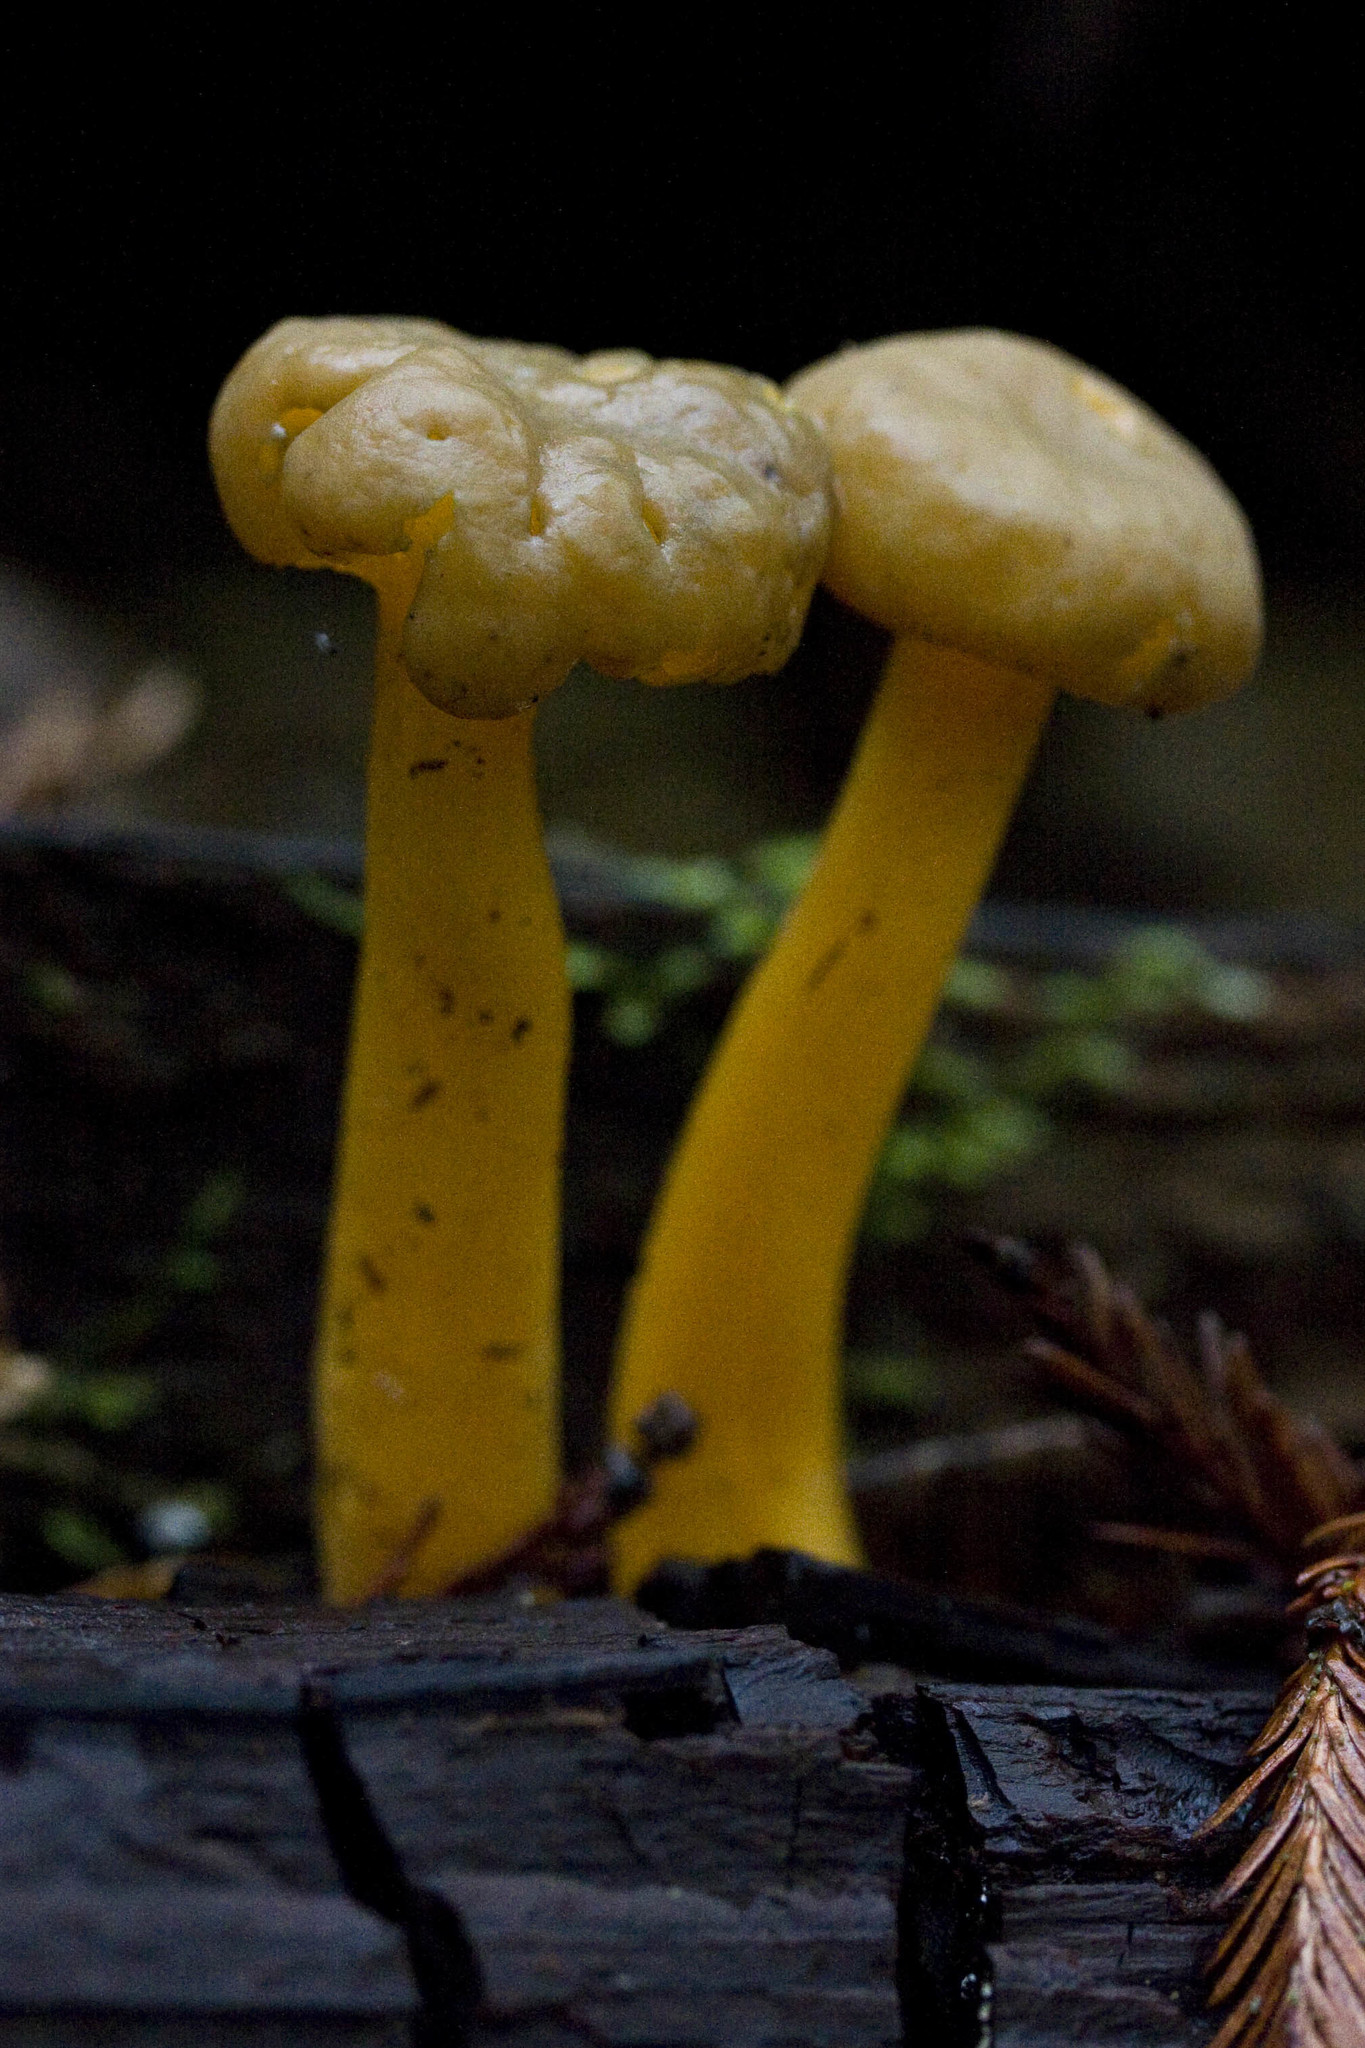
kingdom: Fungi
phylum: Ascomycota
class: Leotiomycetes
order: Leotiales
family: Leotiaceae
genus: Leotia
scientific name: Leotia lubrica
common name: Jellybaby
